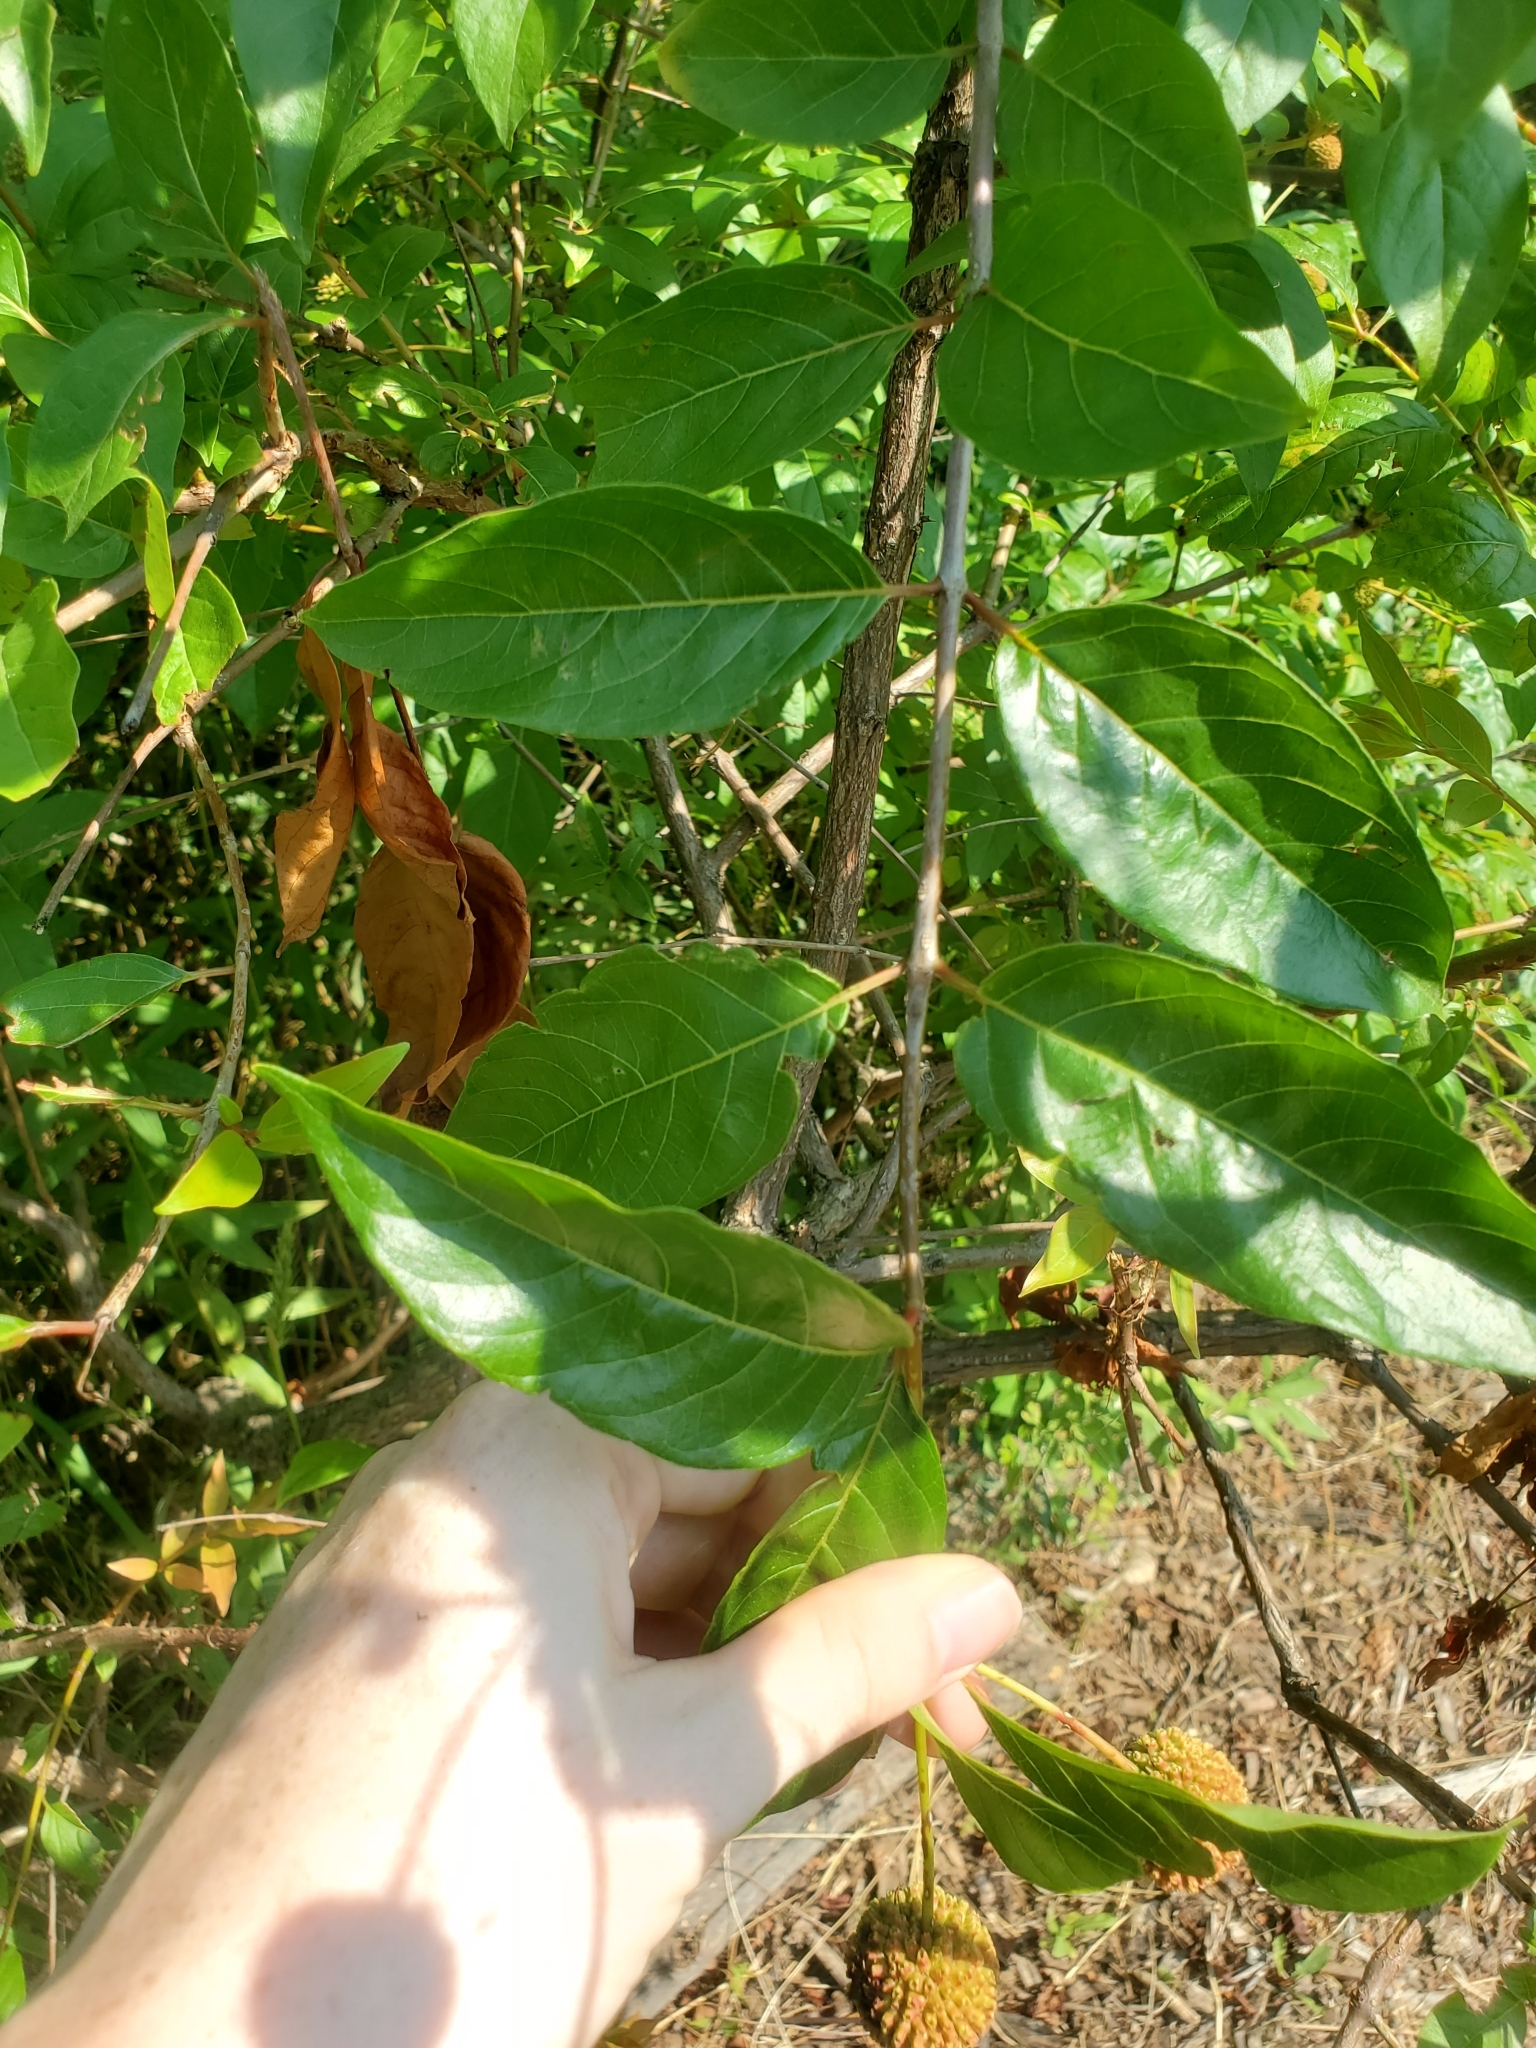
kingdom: Plantae
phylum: Tracheophyta
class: Magnoliopsida
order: Gentianales
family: Rubiaceae
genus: Cephalanthus
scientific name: Cephalanthus occidentalis
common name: Button-willow
